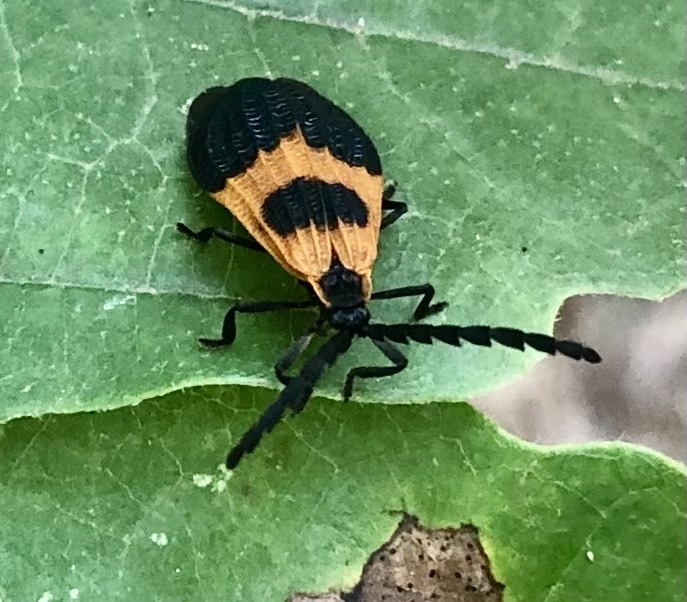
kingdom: Animalia
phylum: Arthropoda
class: Insecta
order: Coleoptera
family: Lycidae
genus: Calopteron
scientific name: Calopteron terminale
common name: End band net-winged beetle
